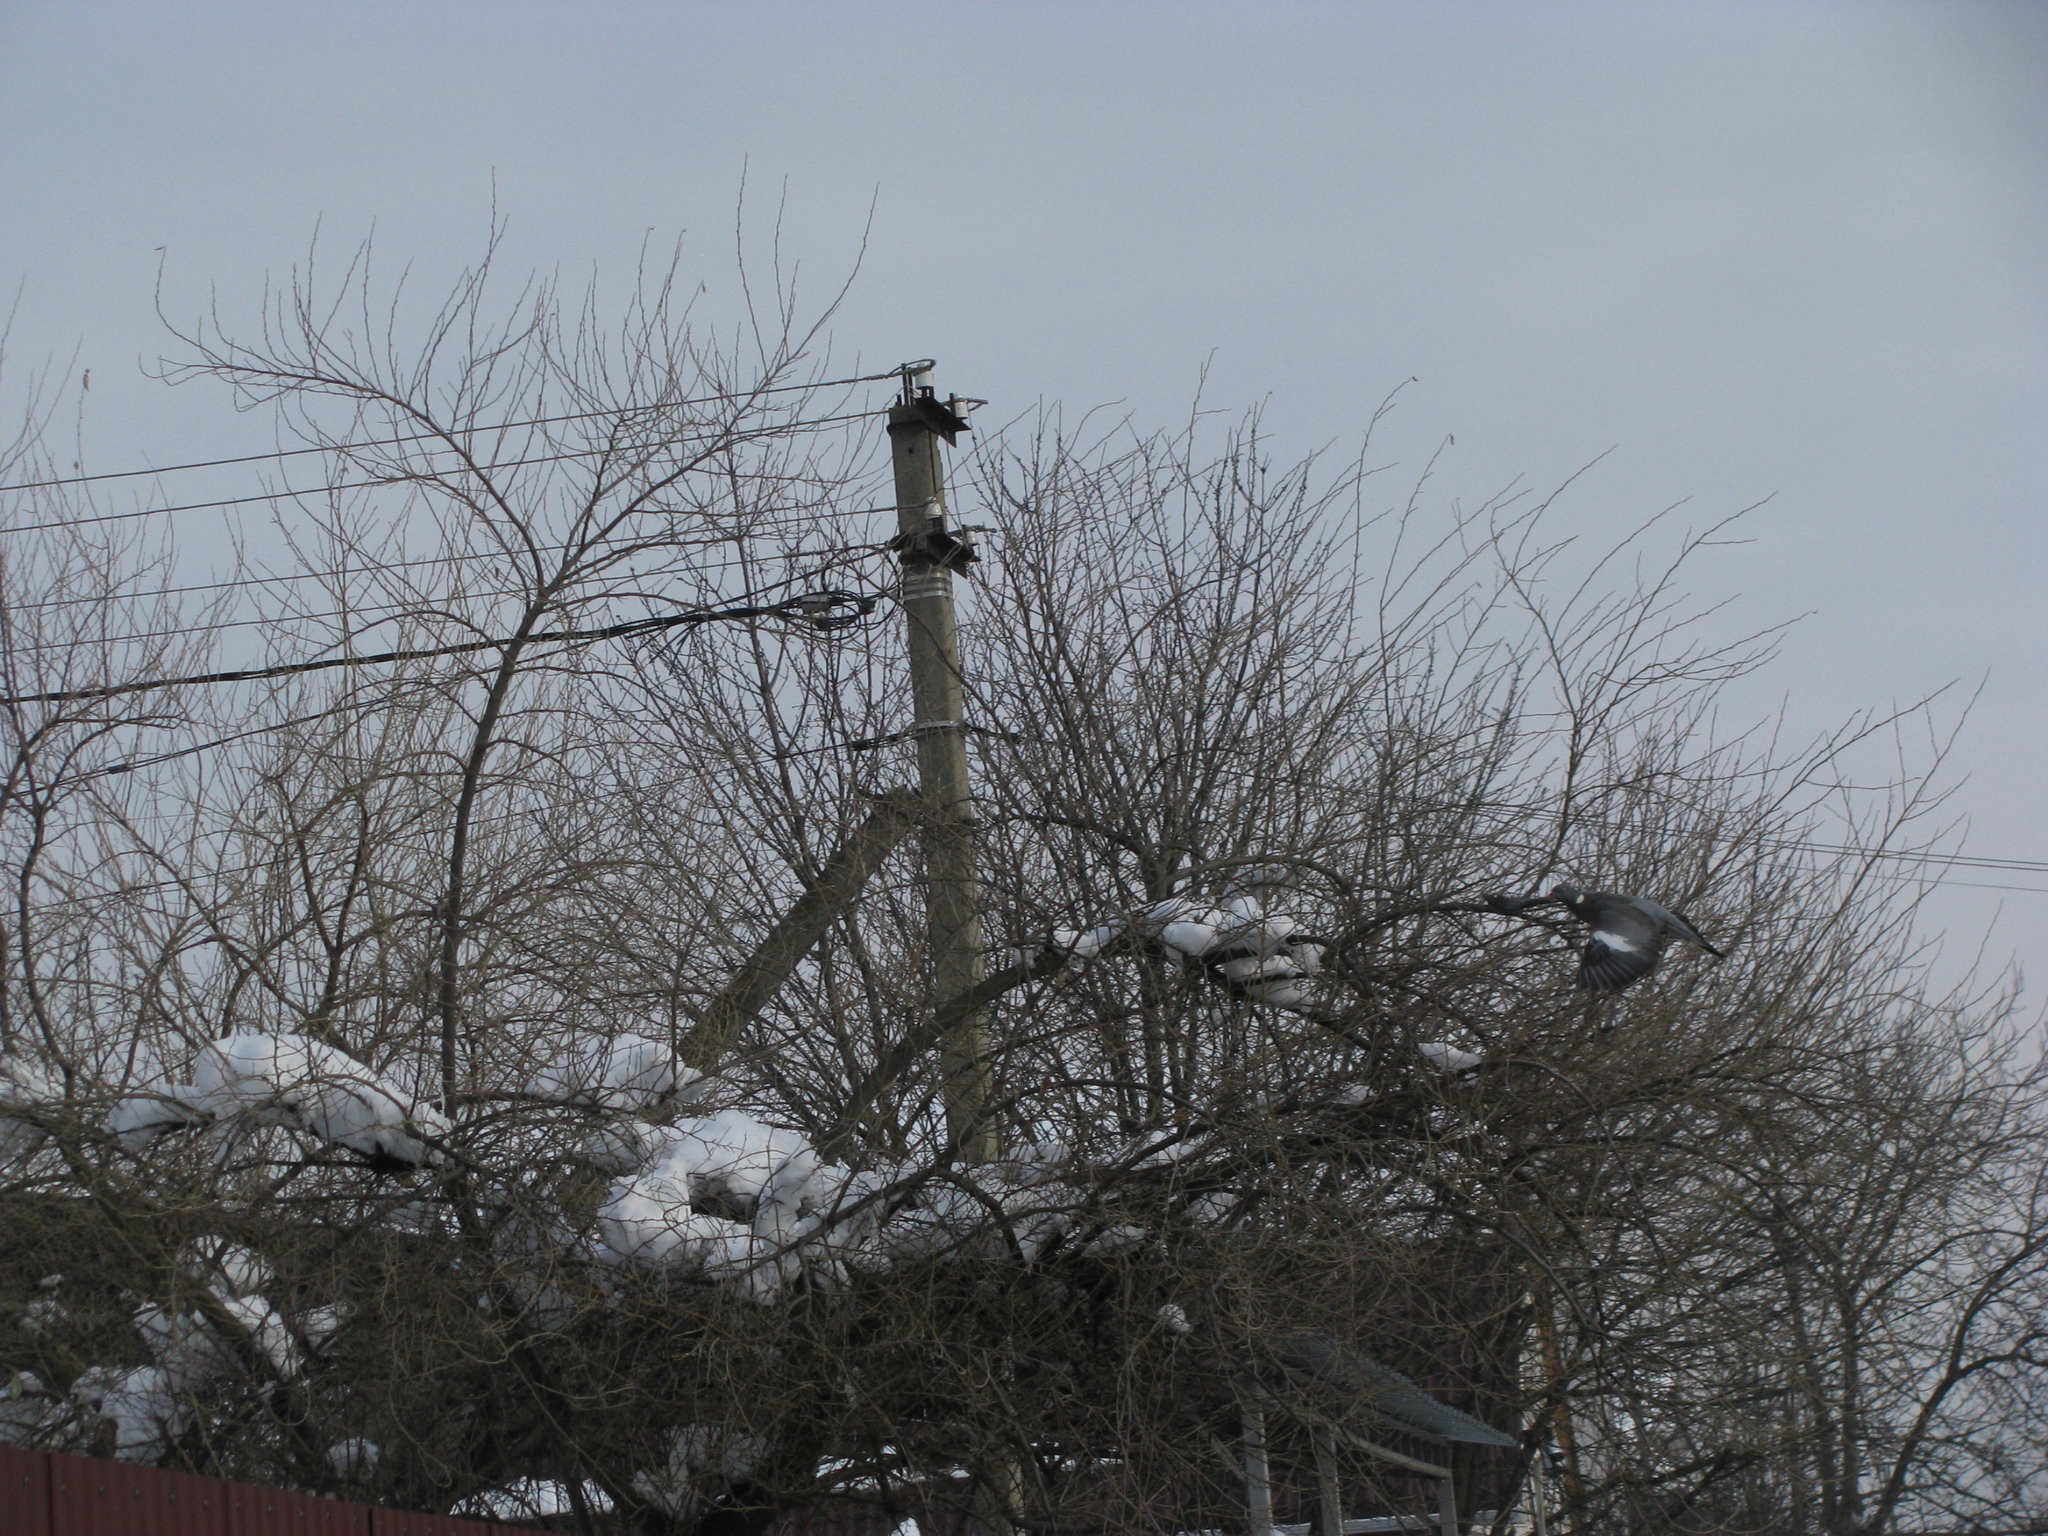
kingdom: Animalia
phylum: Chordata
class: Aves
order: Columbiformes
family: Columbidae
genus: Columba
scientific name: Columba palumbus
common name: Common wood pigeon
